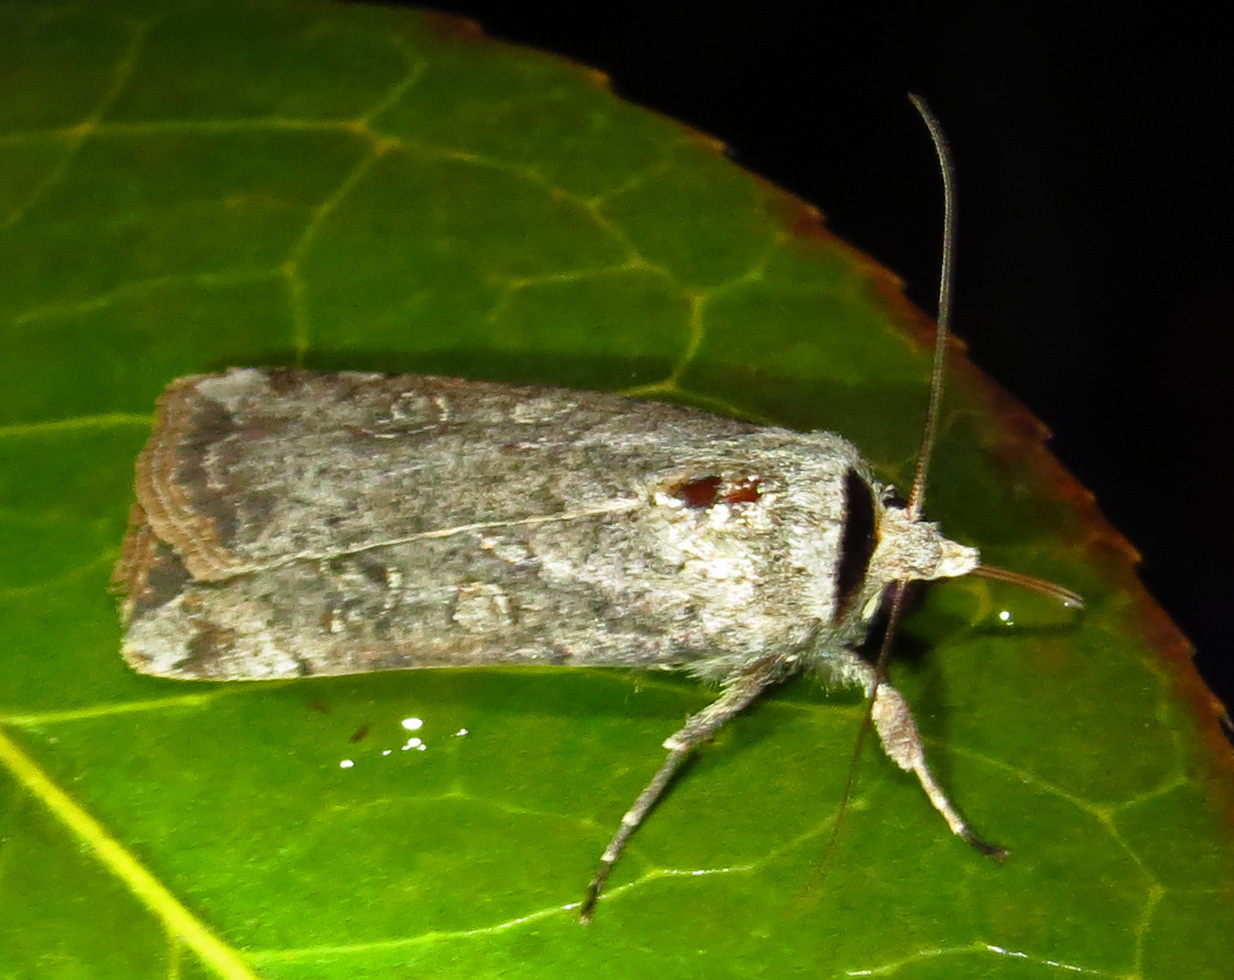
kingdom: Animalia
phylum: Arthropoda
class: Insecta
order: Lepidoptera
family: Noctuidae
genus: Anicla
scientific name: Anicla infecta
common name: Green cutworm
